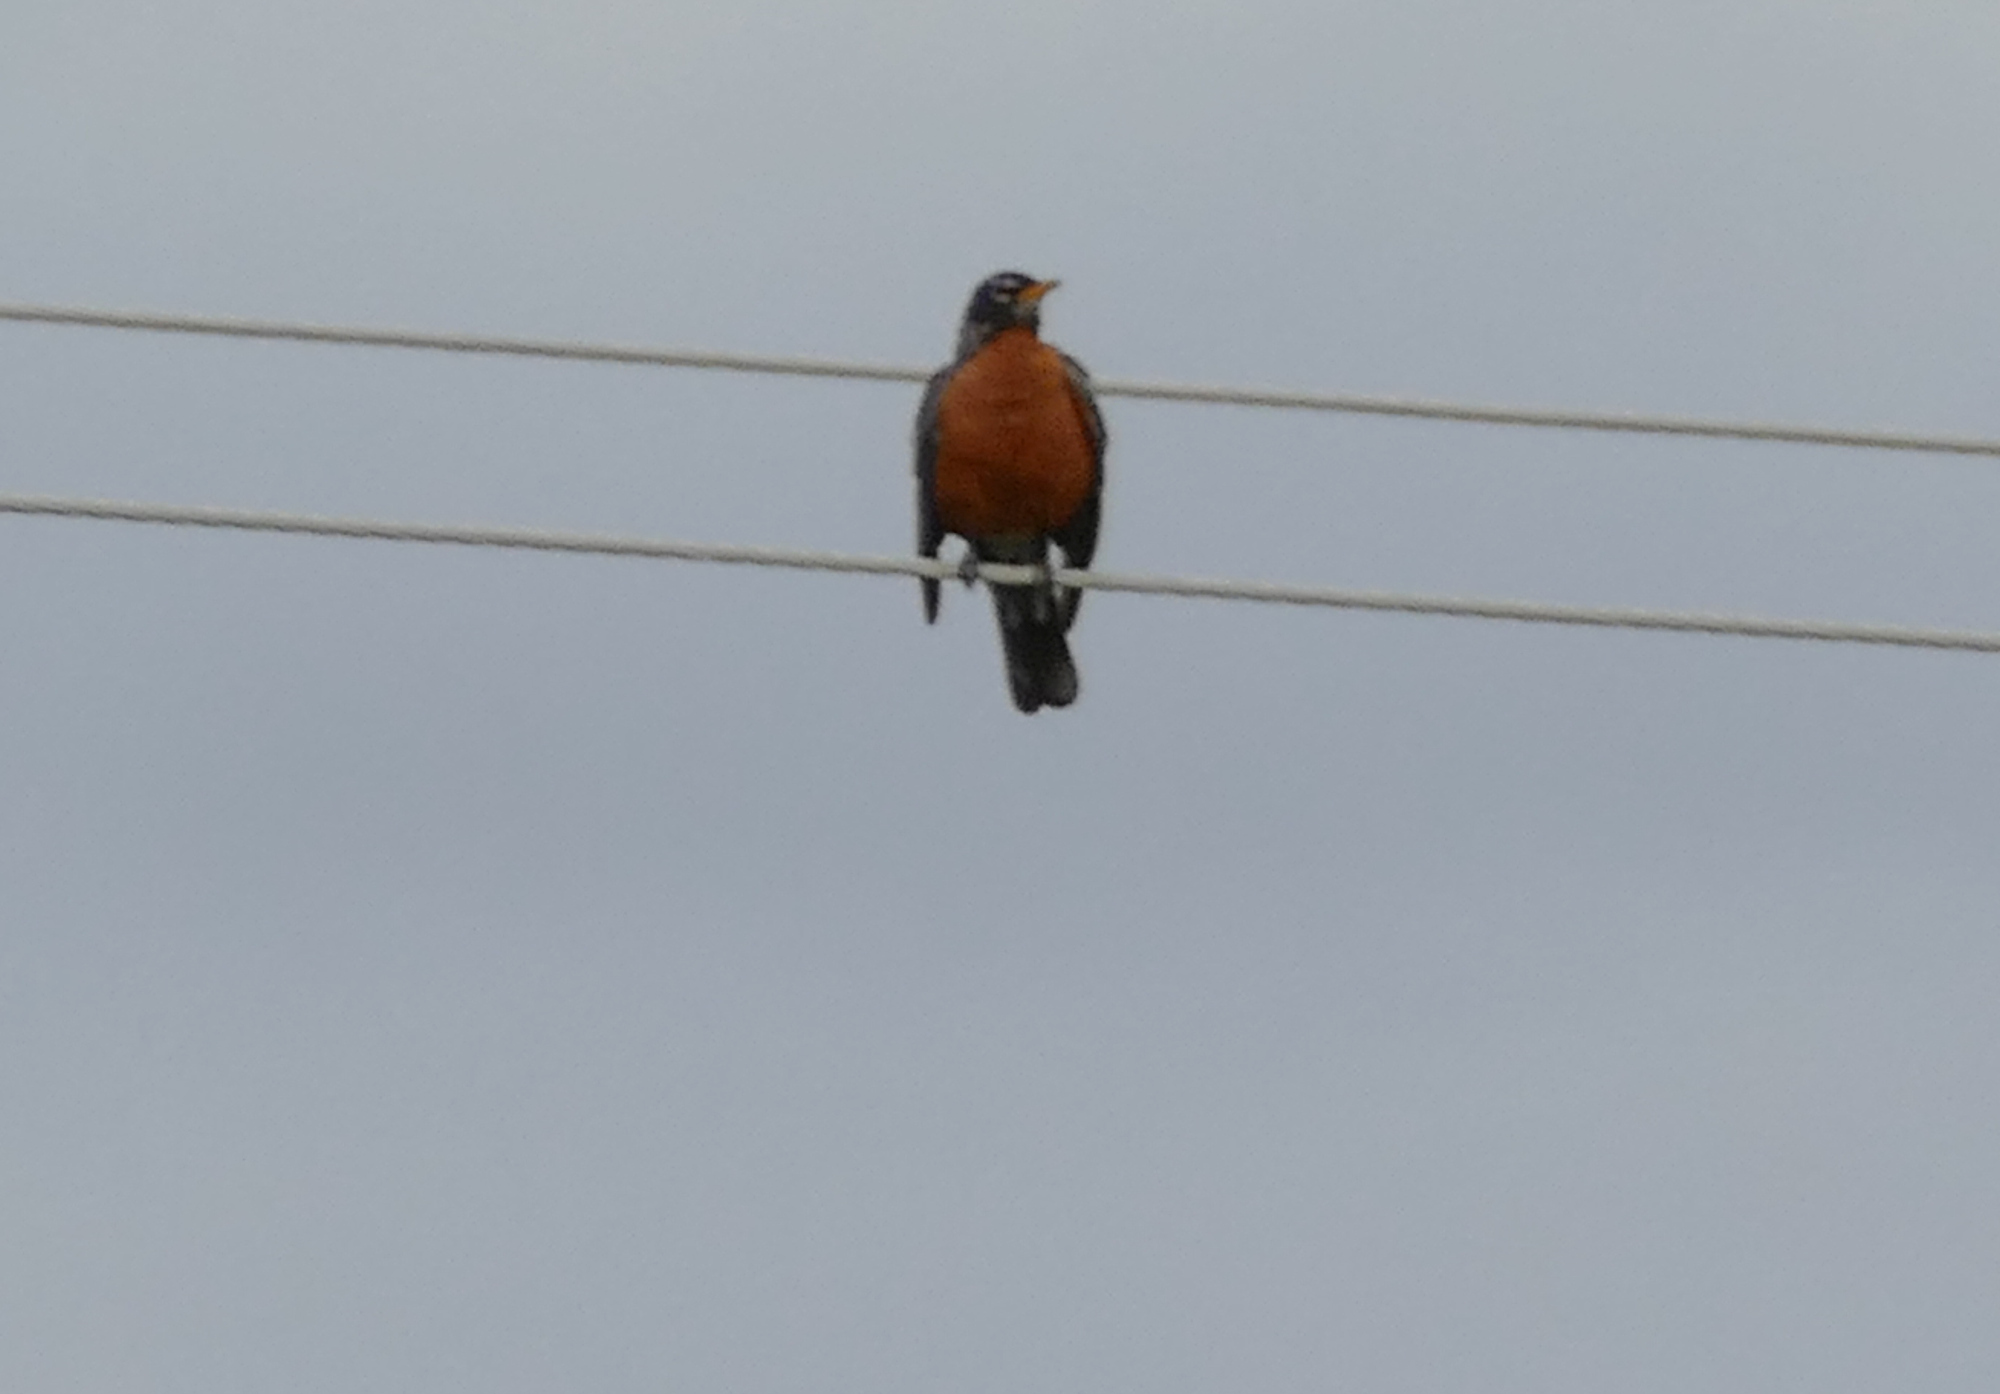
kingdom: Animalia
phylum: Chordata
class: Aves
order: Passeriformes
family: Turdidae
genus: Turdus
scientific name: Turdus migratorius
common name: American robin
